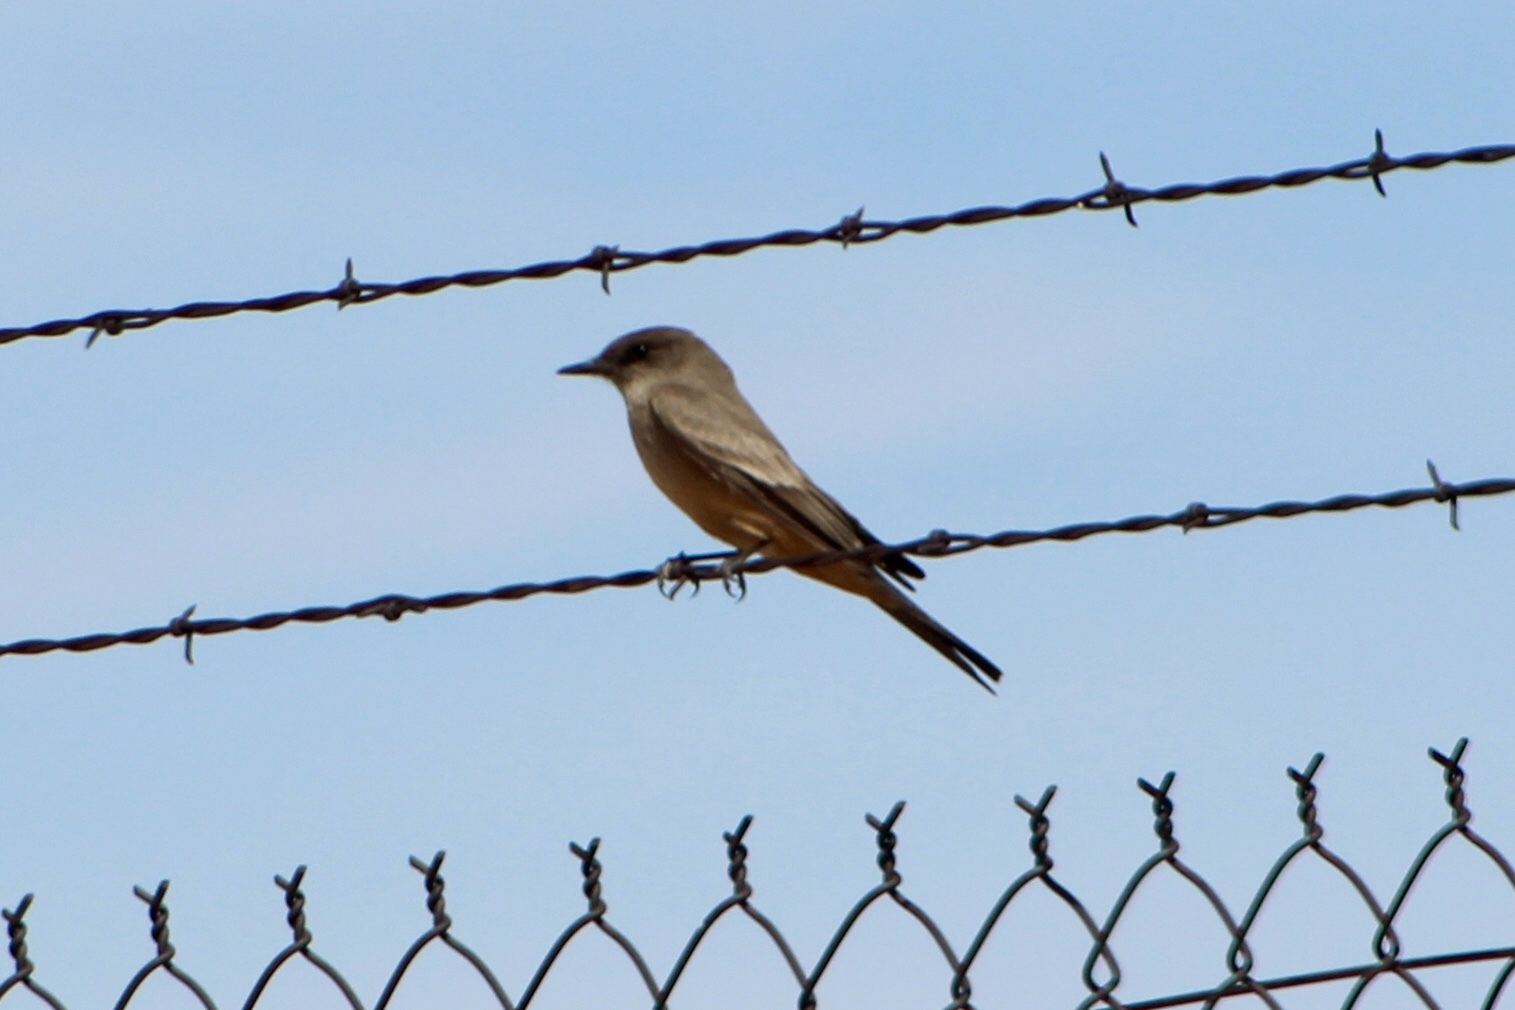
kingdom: Animalia
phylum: Chordata
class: Aves
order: Passeriformes
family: Tyrannidae
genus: Sayornis
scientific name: Sayornis saya
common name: Say's phoebe
